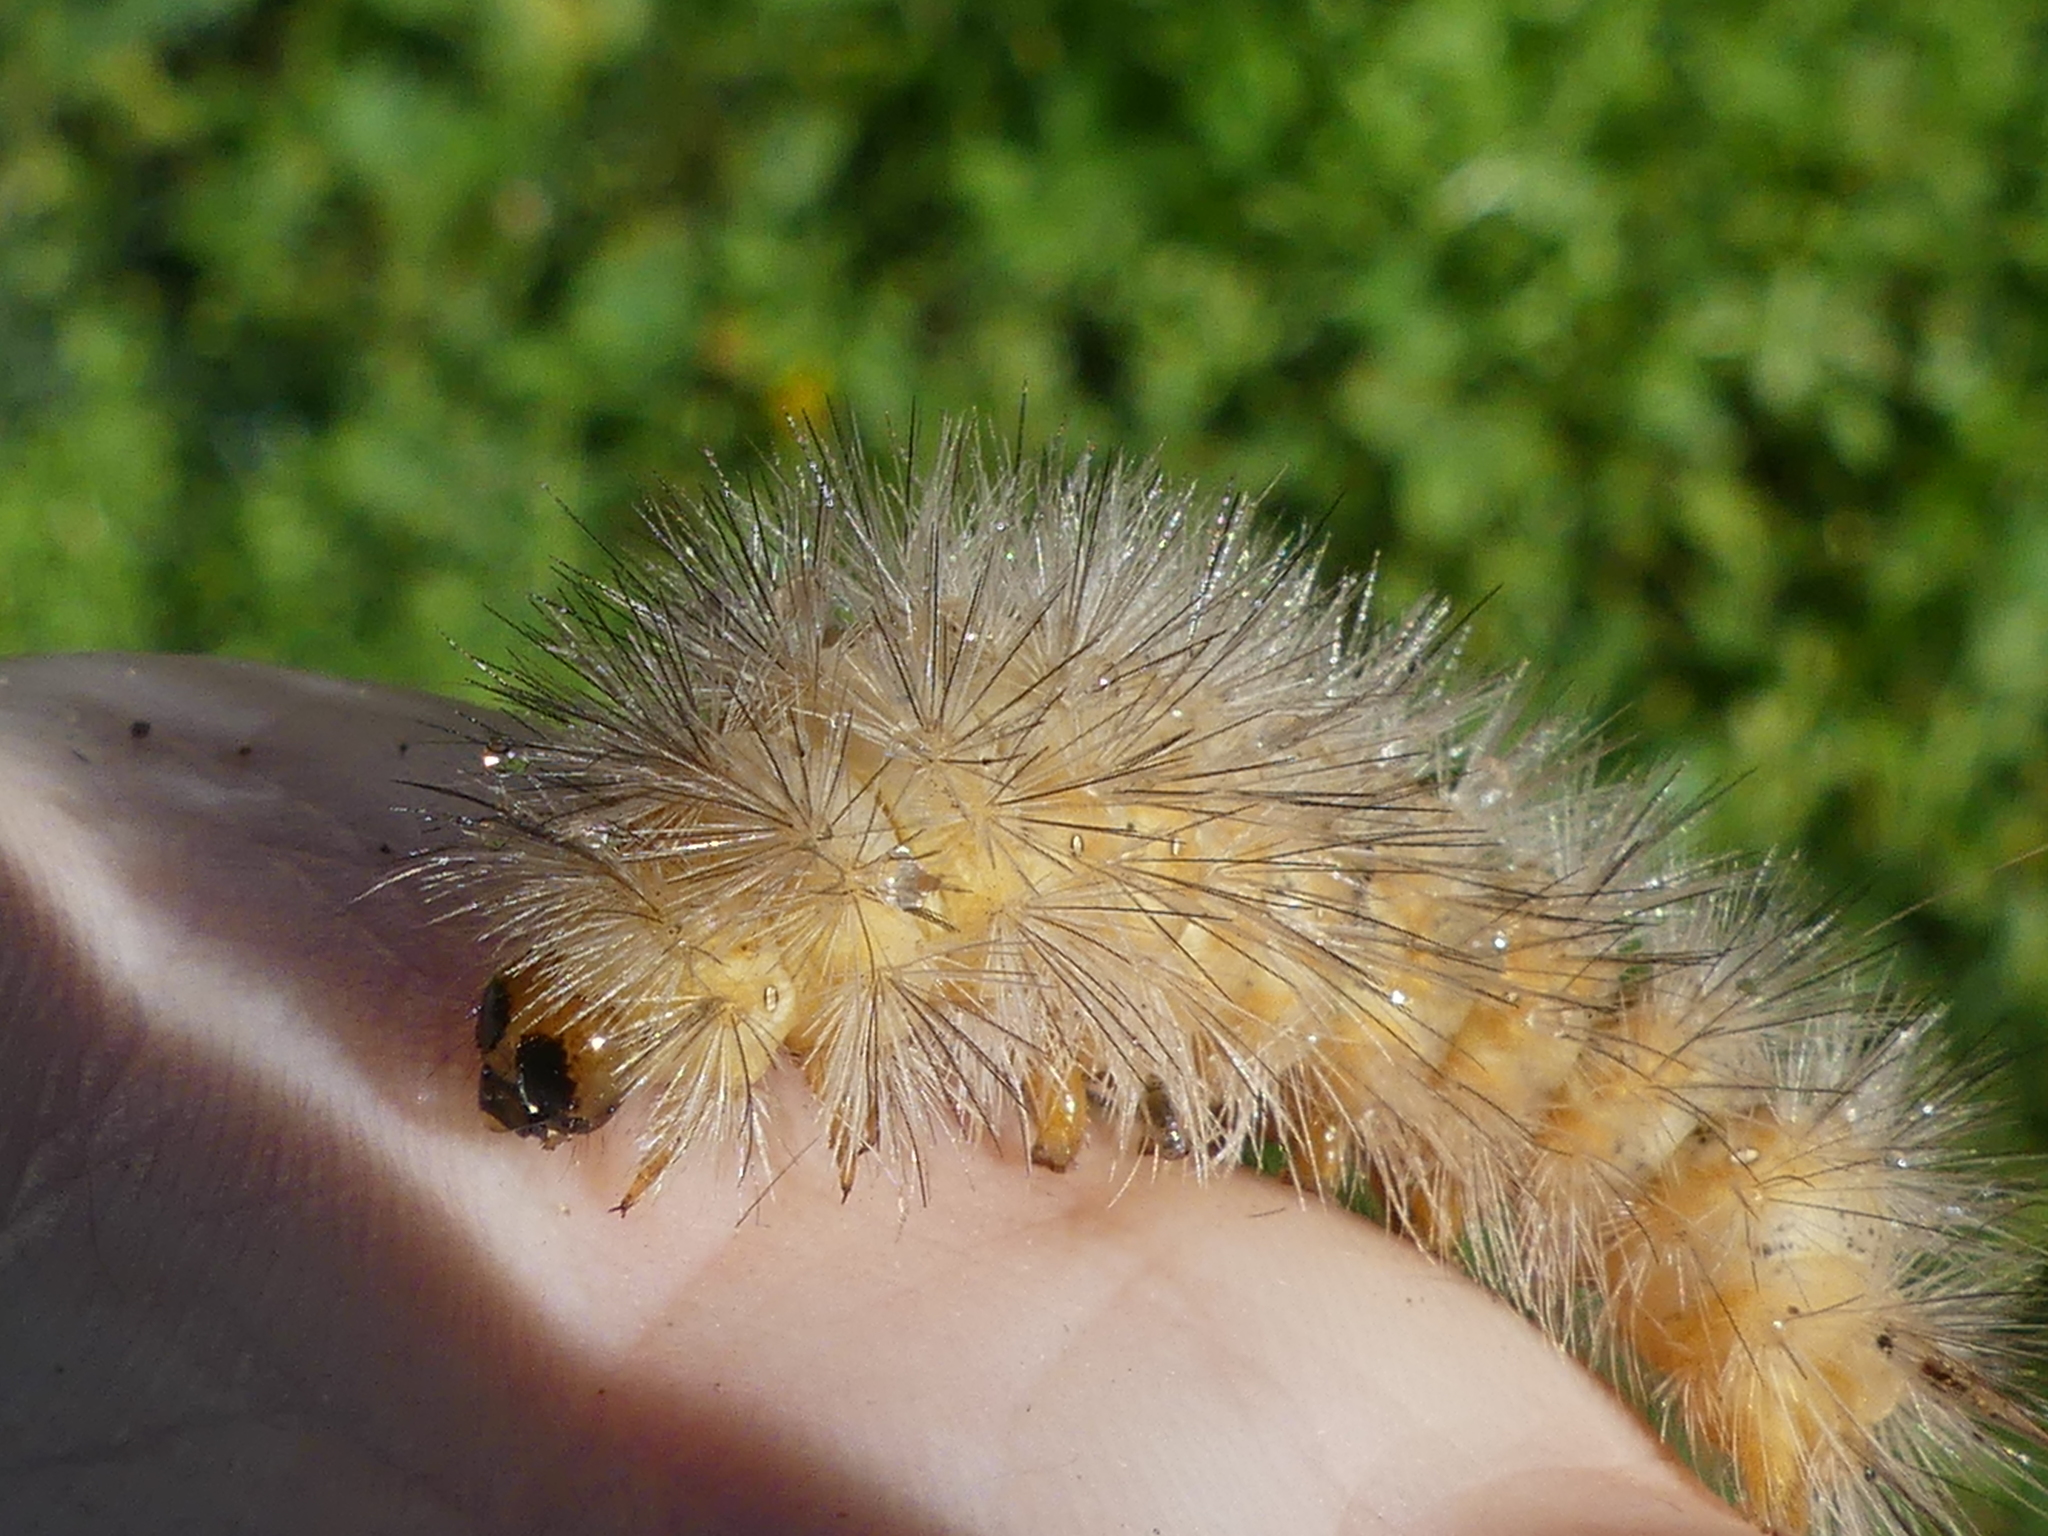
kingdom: Animalia
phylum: Arthropoda
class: Insecta
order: Lepidoptera
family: Erebidae
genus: Estigmene
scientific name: Estigmene acrea
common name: Salt marsh moth
